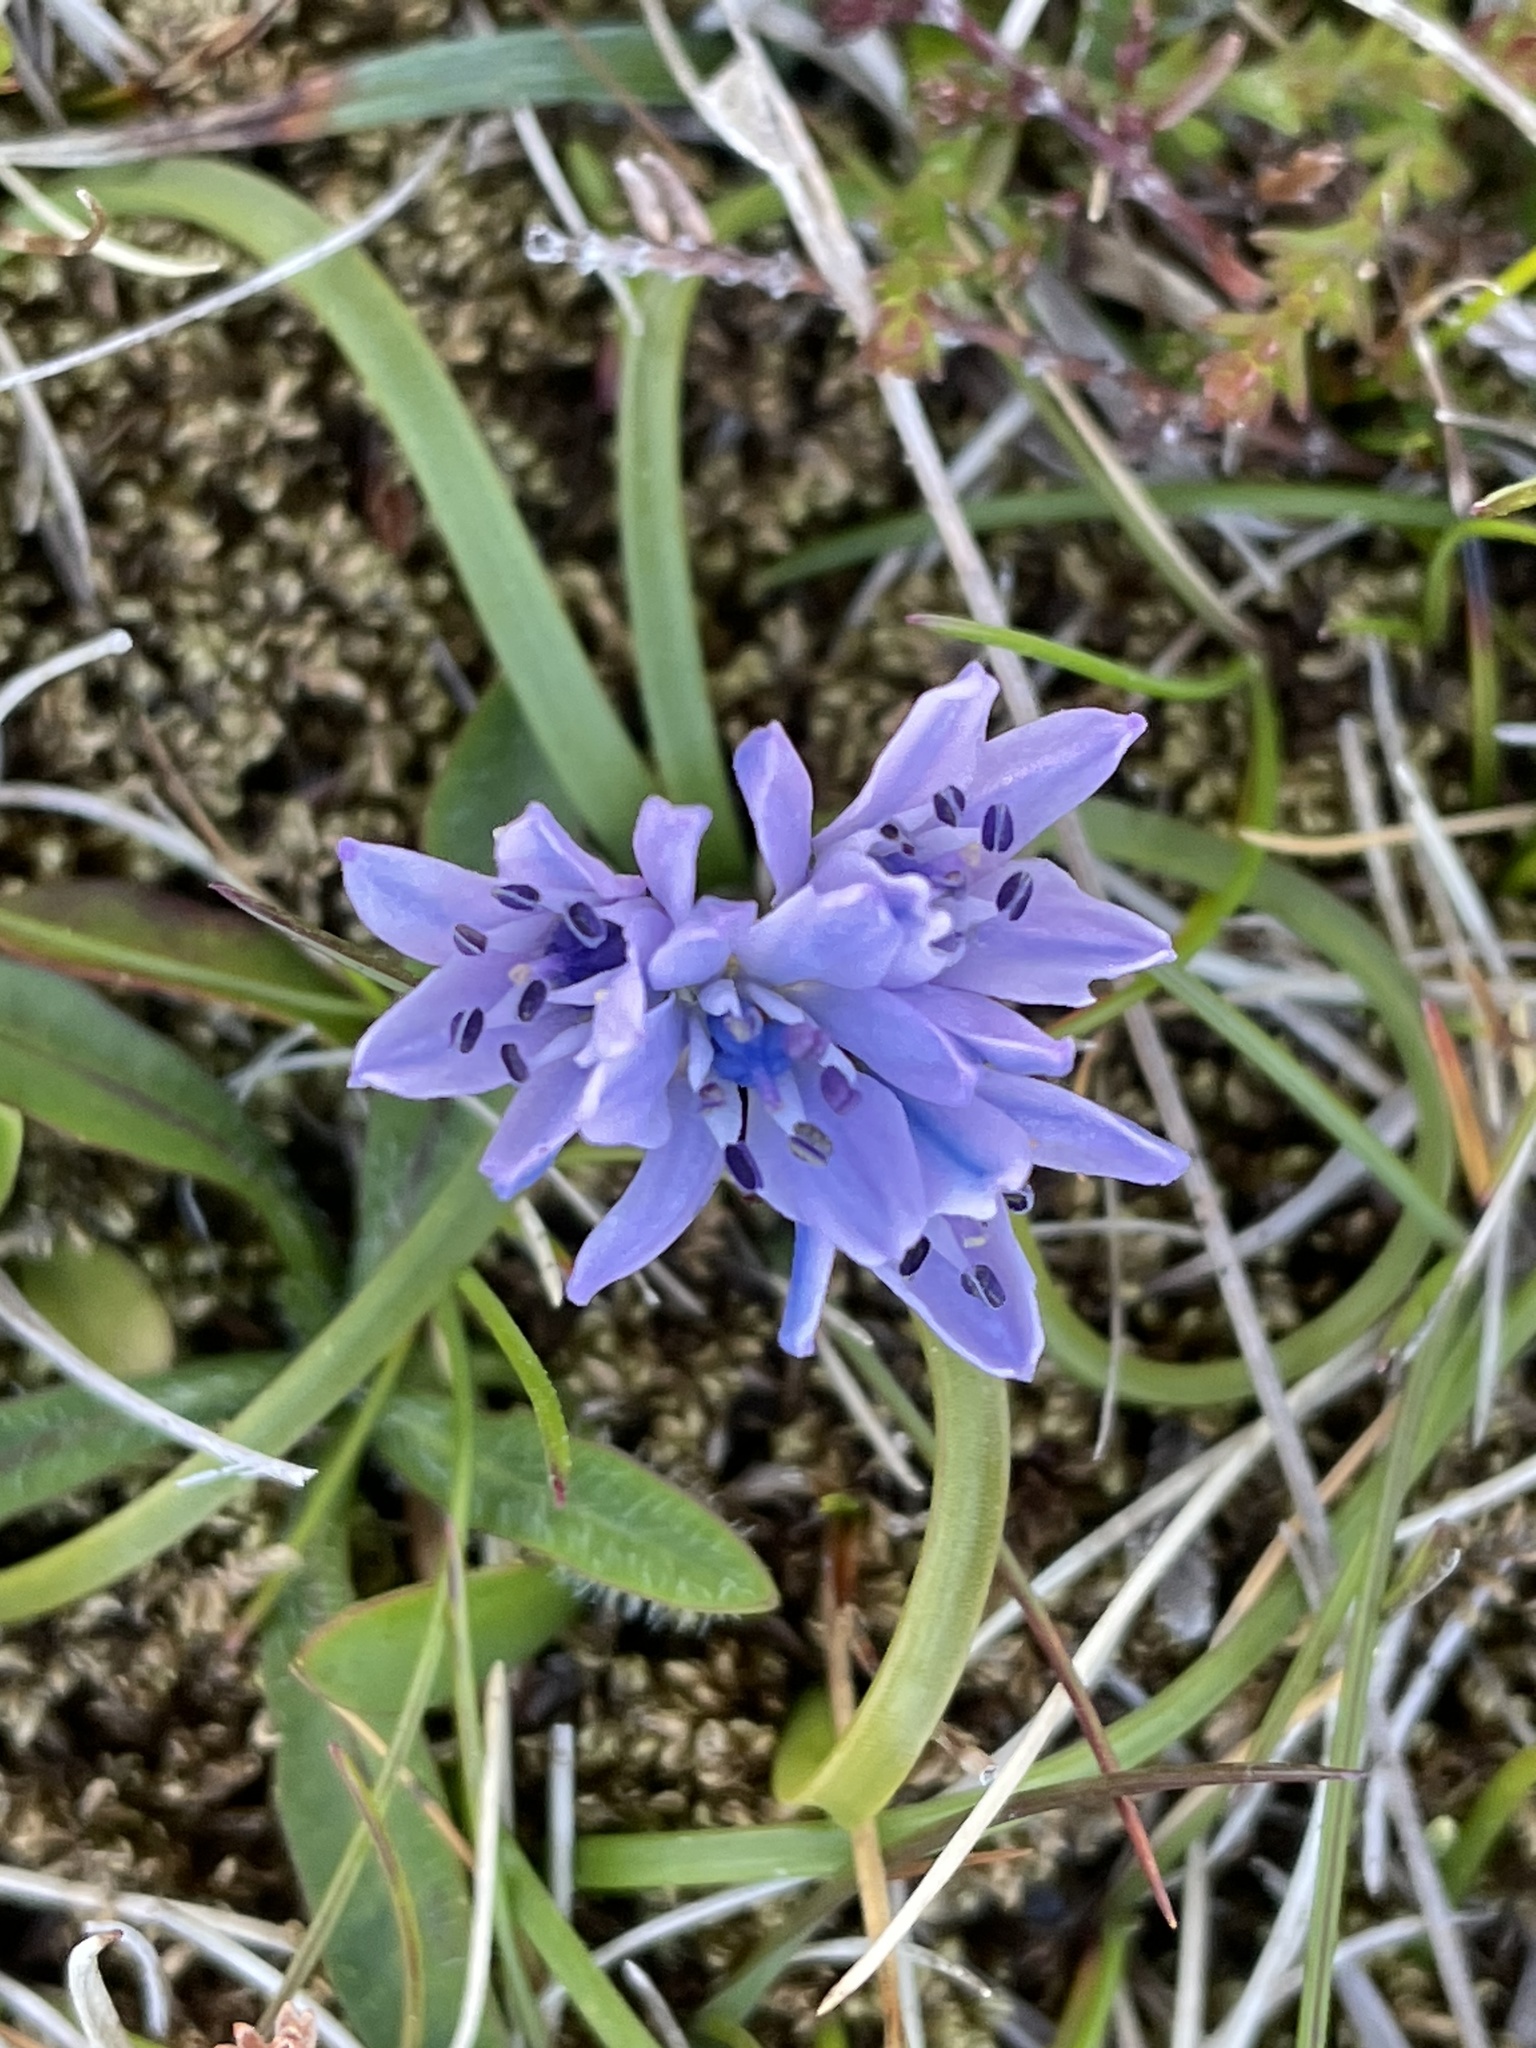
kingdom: Plantae
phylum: Tracheophyta
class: Liliopsida
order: Asparagales
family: Asparagaceae
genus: Scilla
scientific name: Scilla verna
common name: Spring squill
